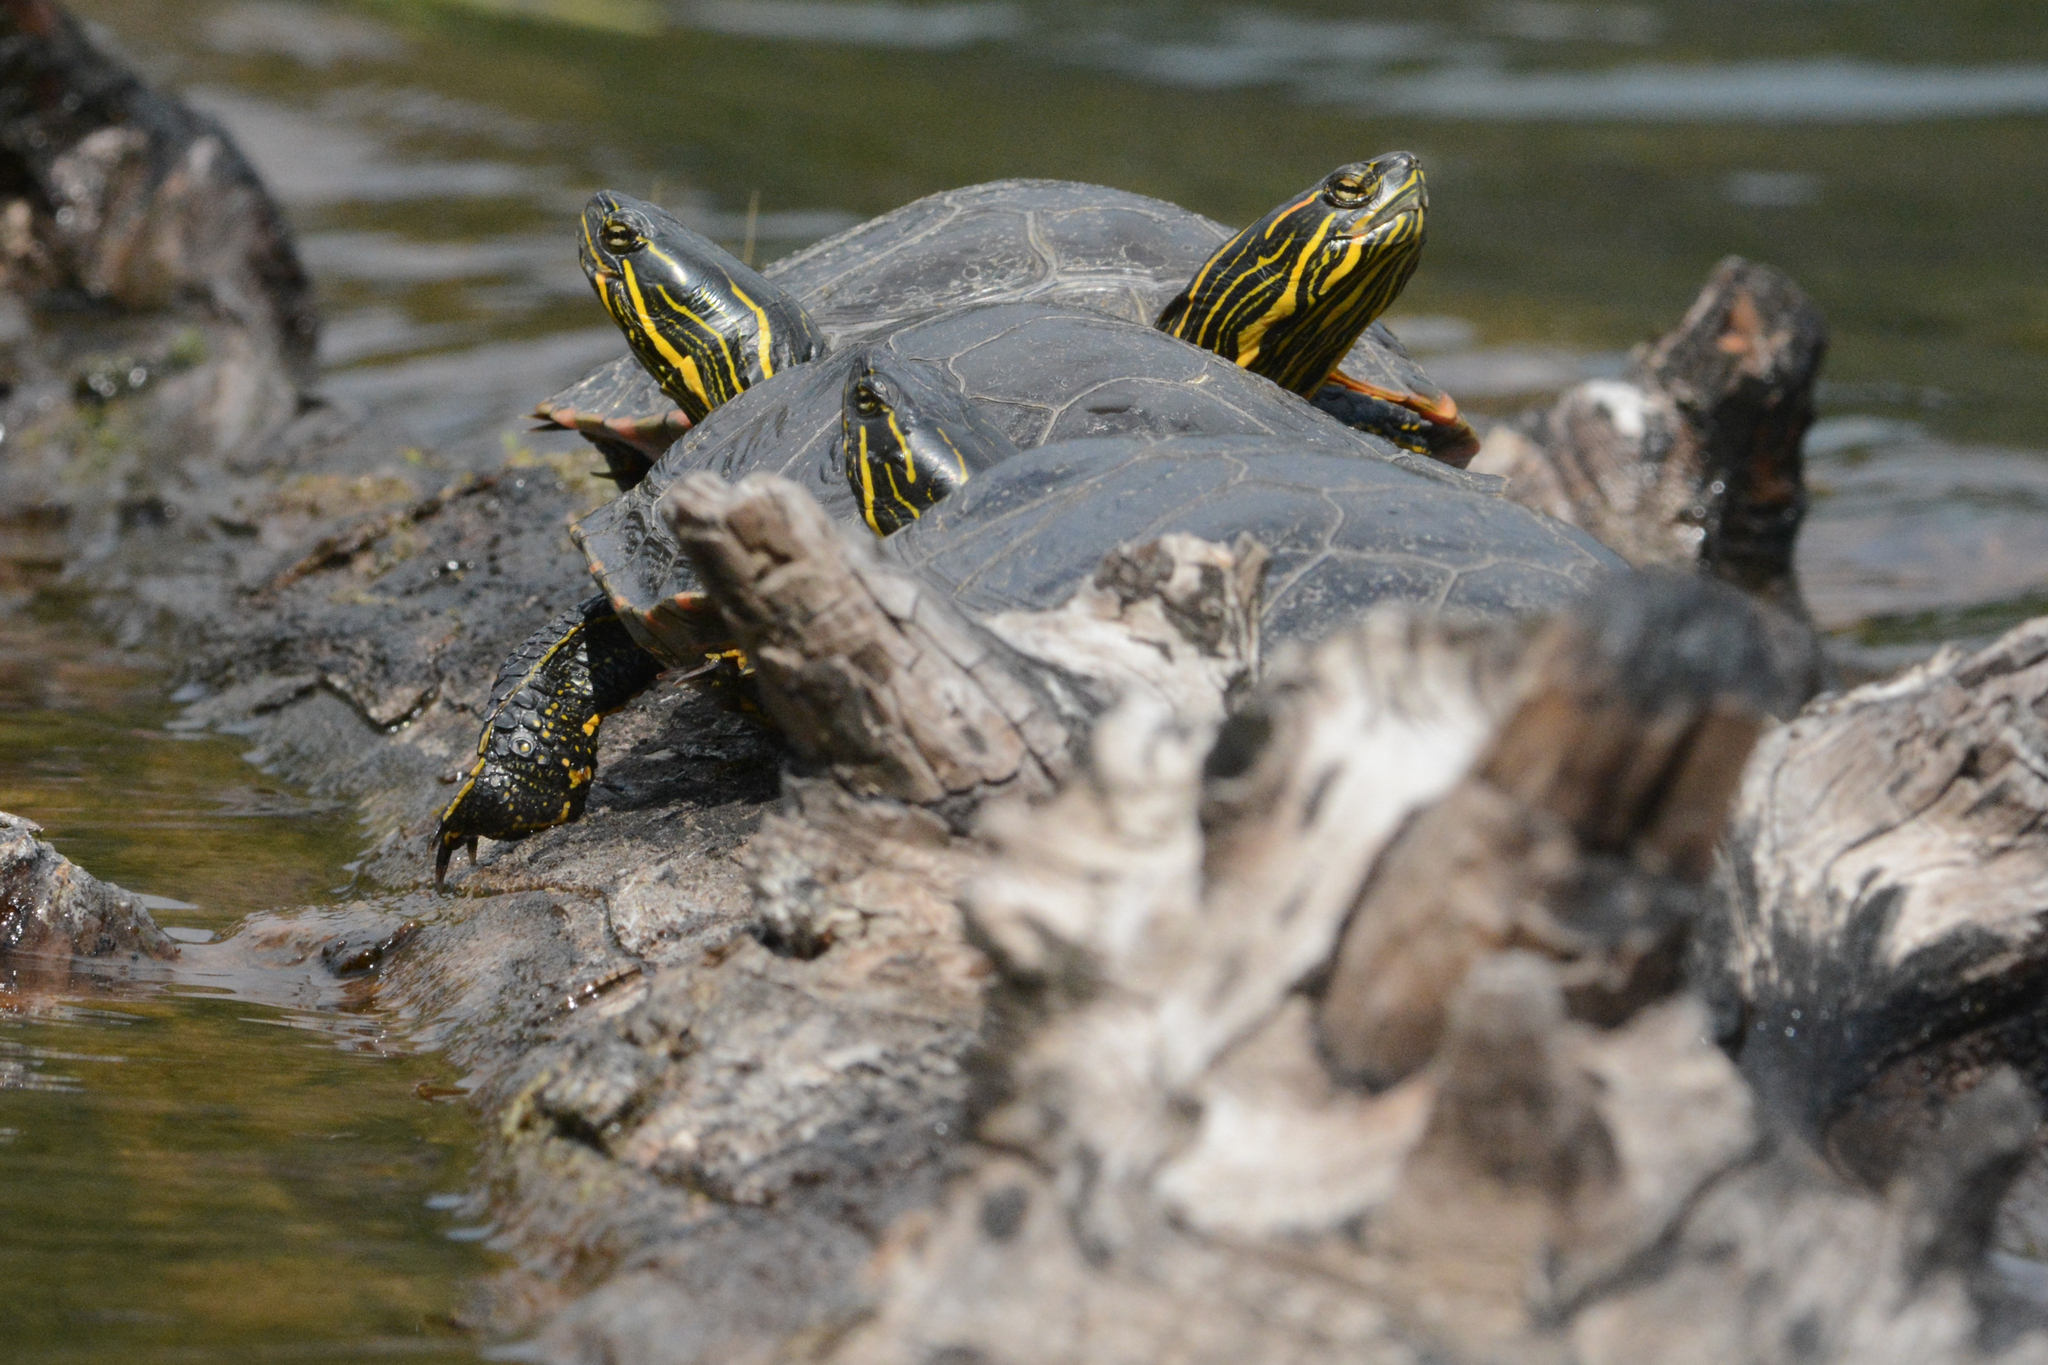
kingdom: Animalia
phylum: Chordata
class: Testudines
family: Emydidae
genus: Chrysemys
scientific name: Chrysemys picta
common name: Painted turtle
